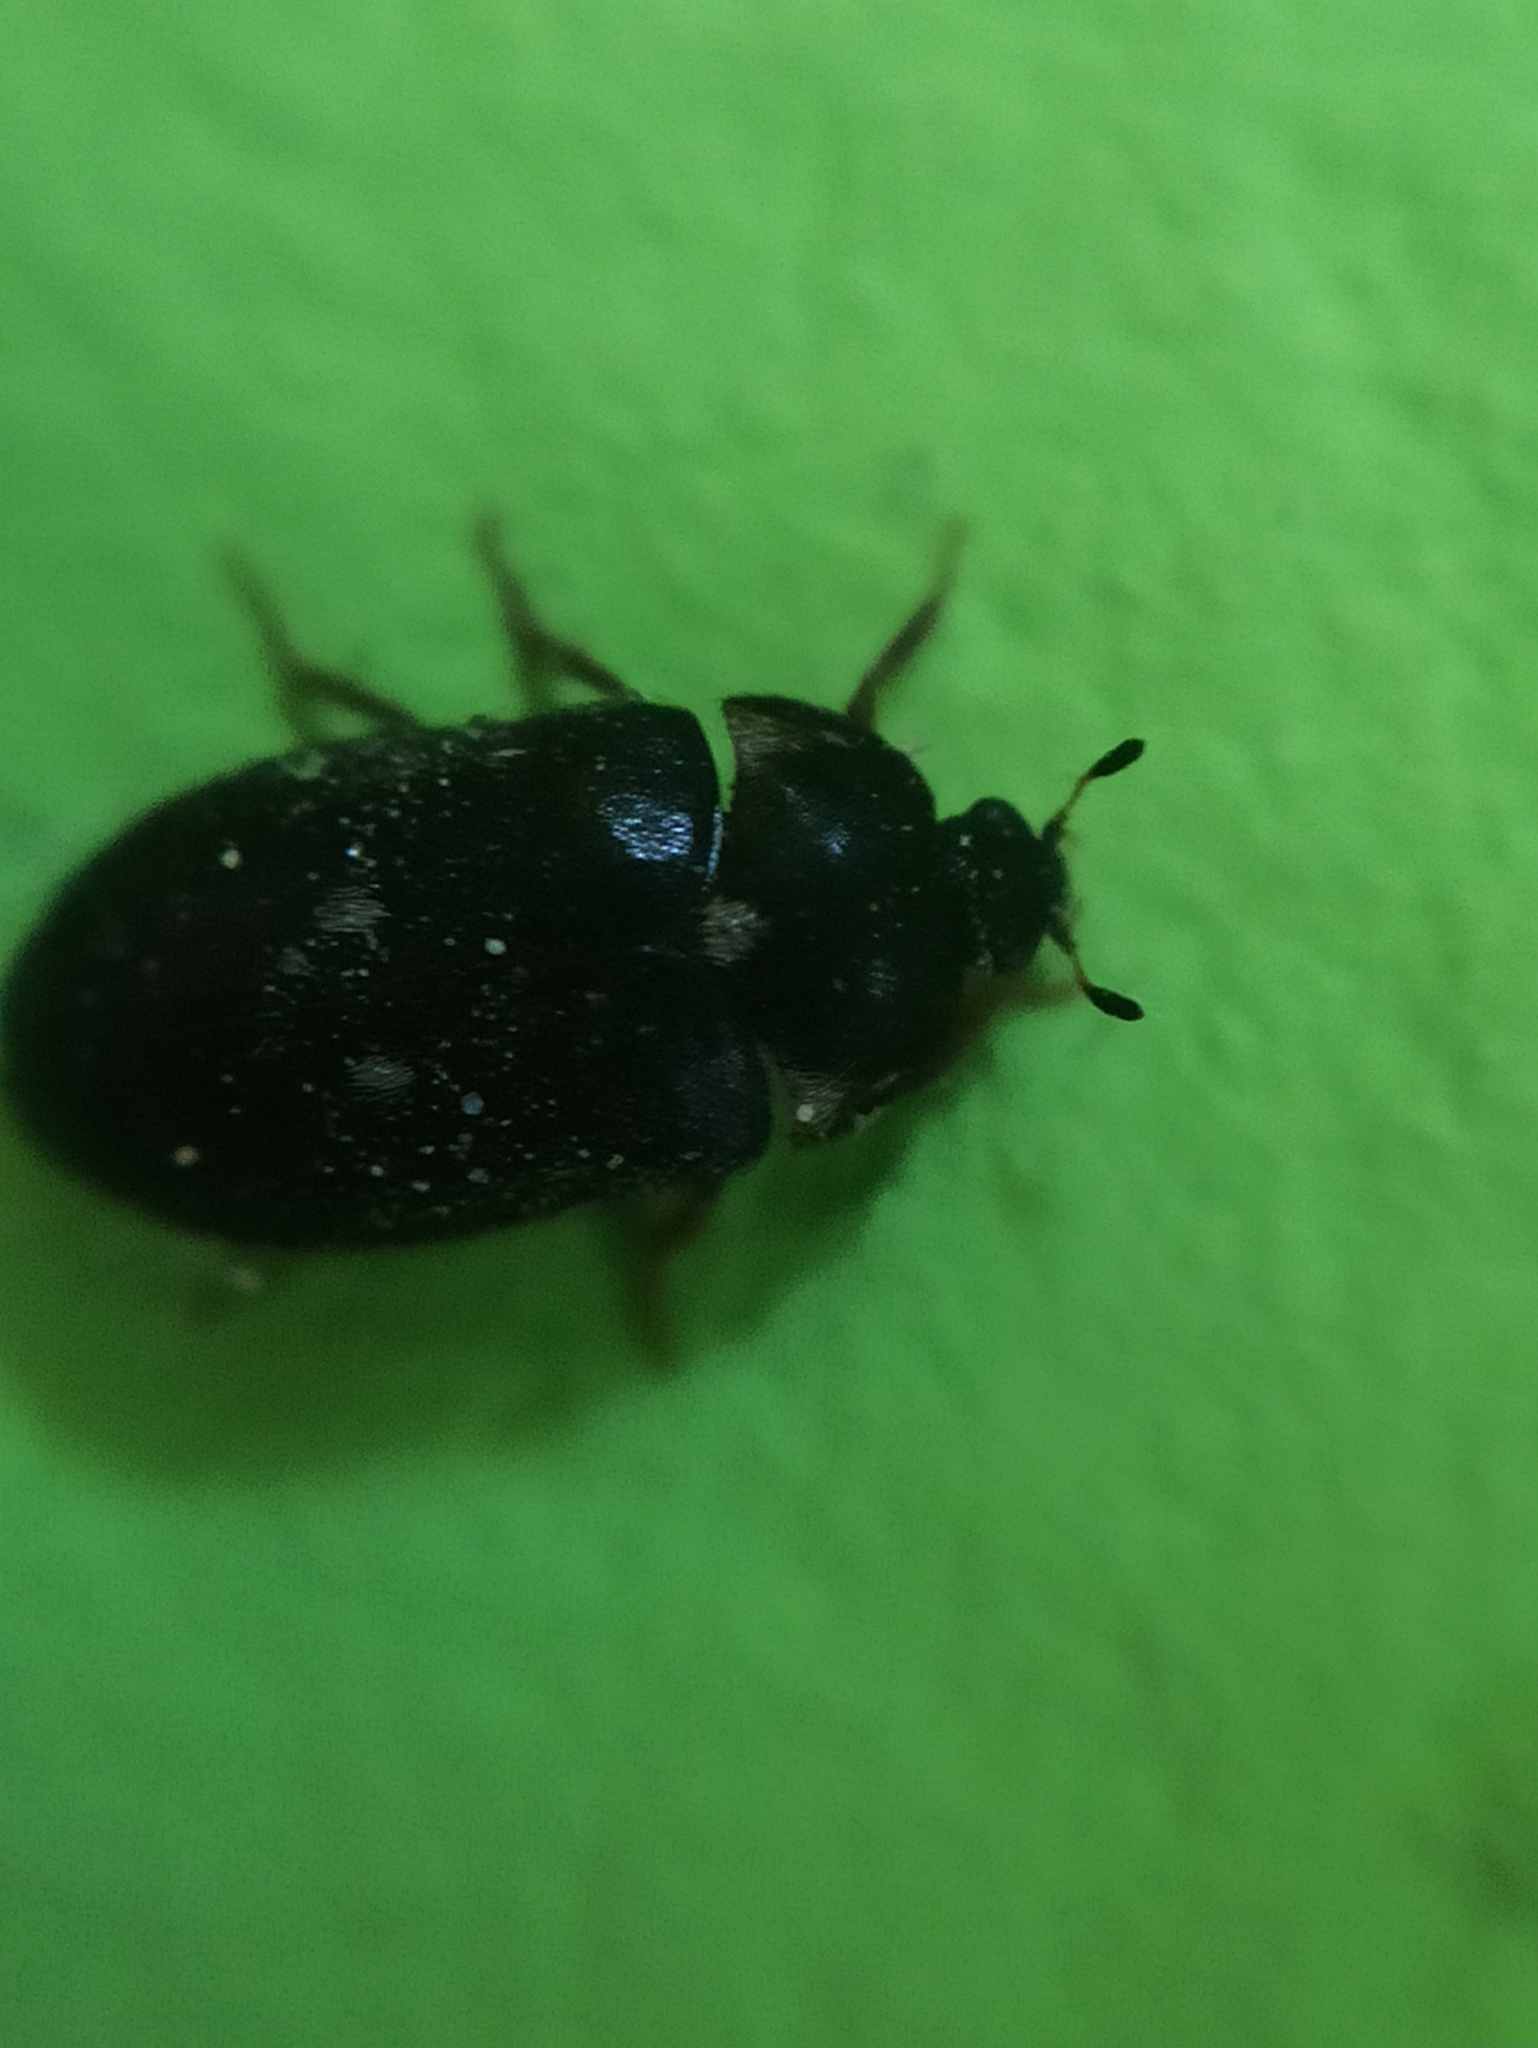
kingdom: Animalia
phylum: Arthropoda
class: Insecta
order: Coleoptera
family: Dermestidae
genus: Attagenus
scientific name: Attagenus pellio
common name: Two-spotted carpet beetle
